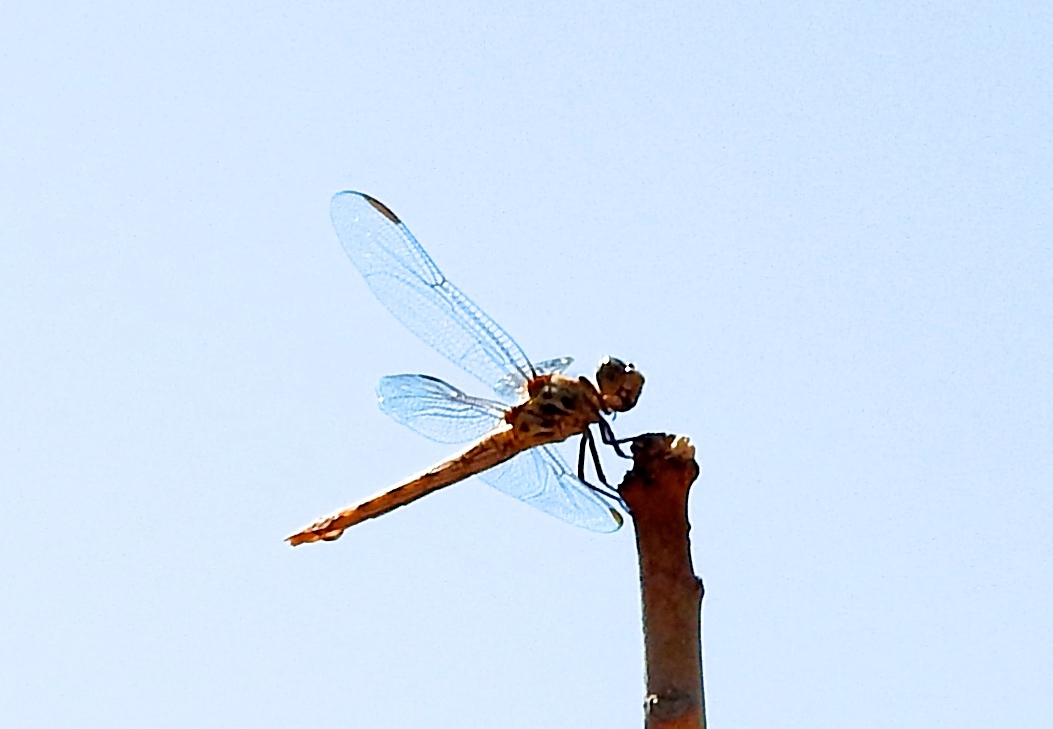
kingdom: Animalia
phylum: Arthropoda
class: Insecta
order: Odonata
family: Libellulidae
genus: Orthemis
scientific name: Orthemis ferruginea
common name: Roseate skimmer
